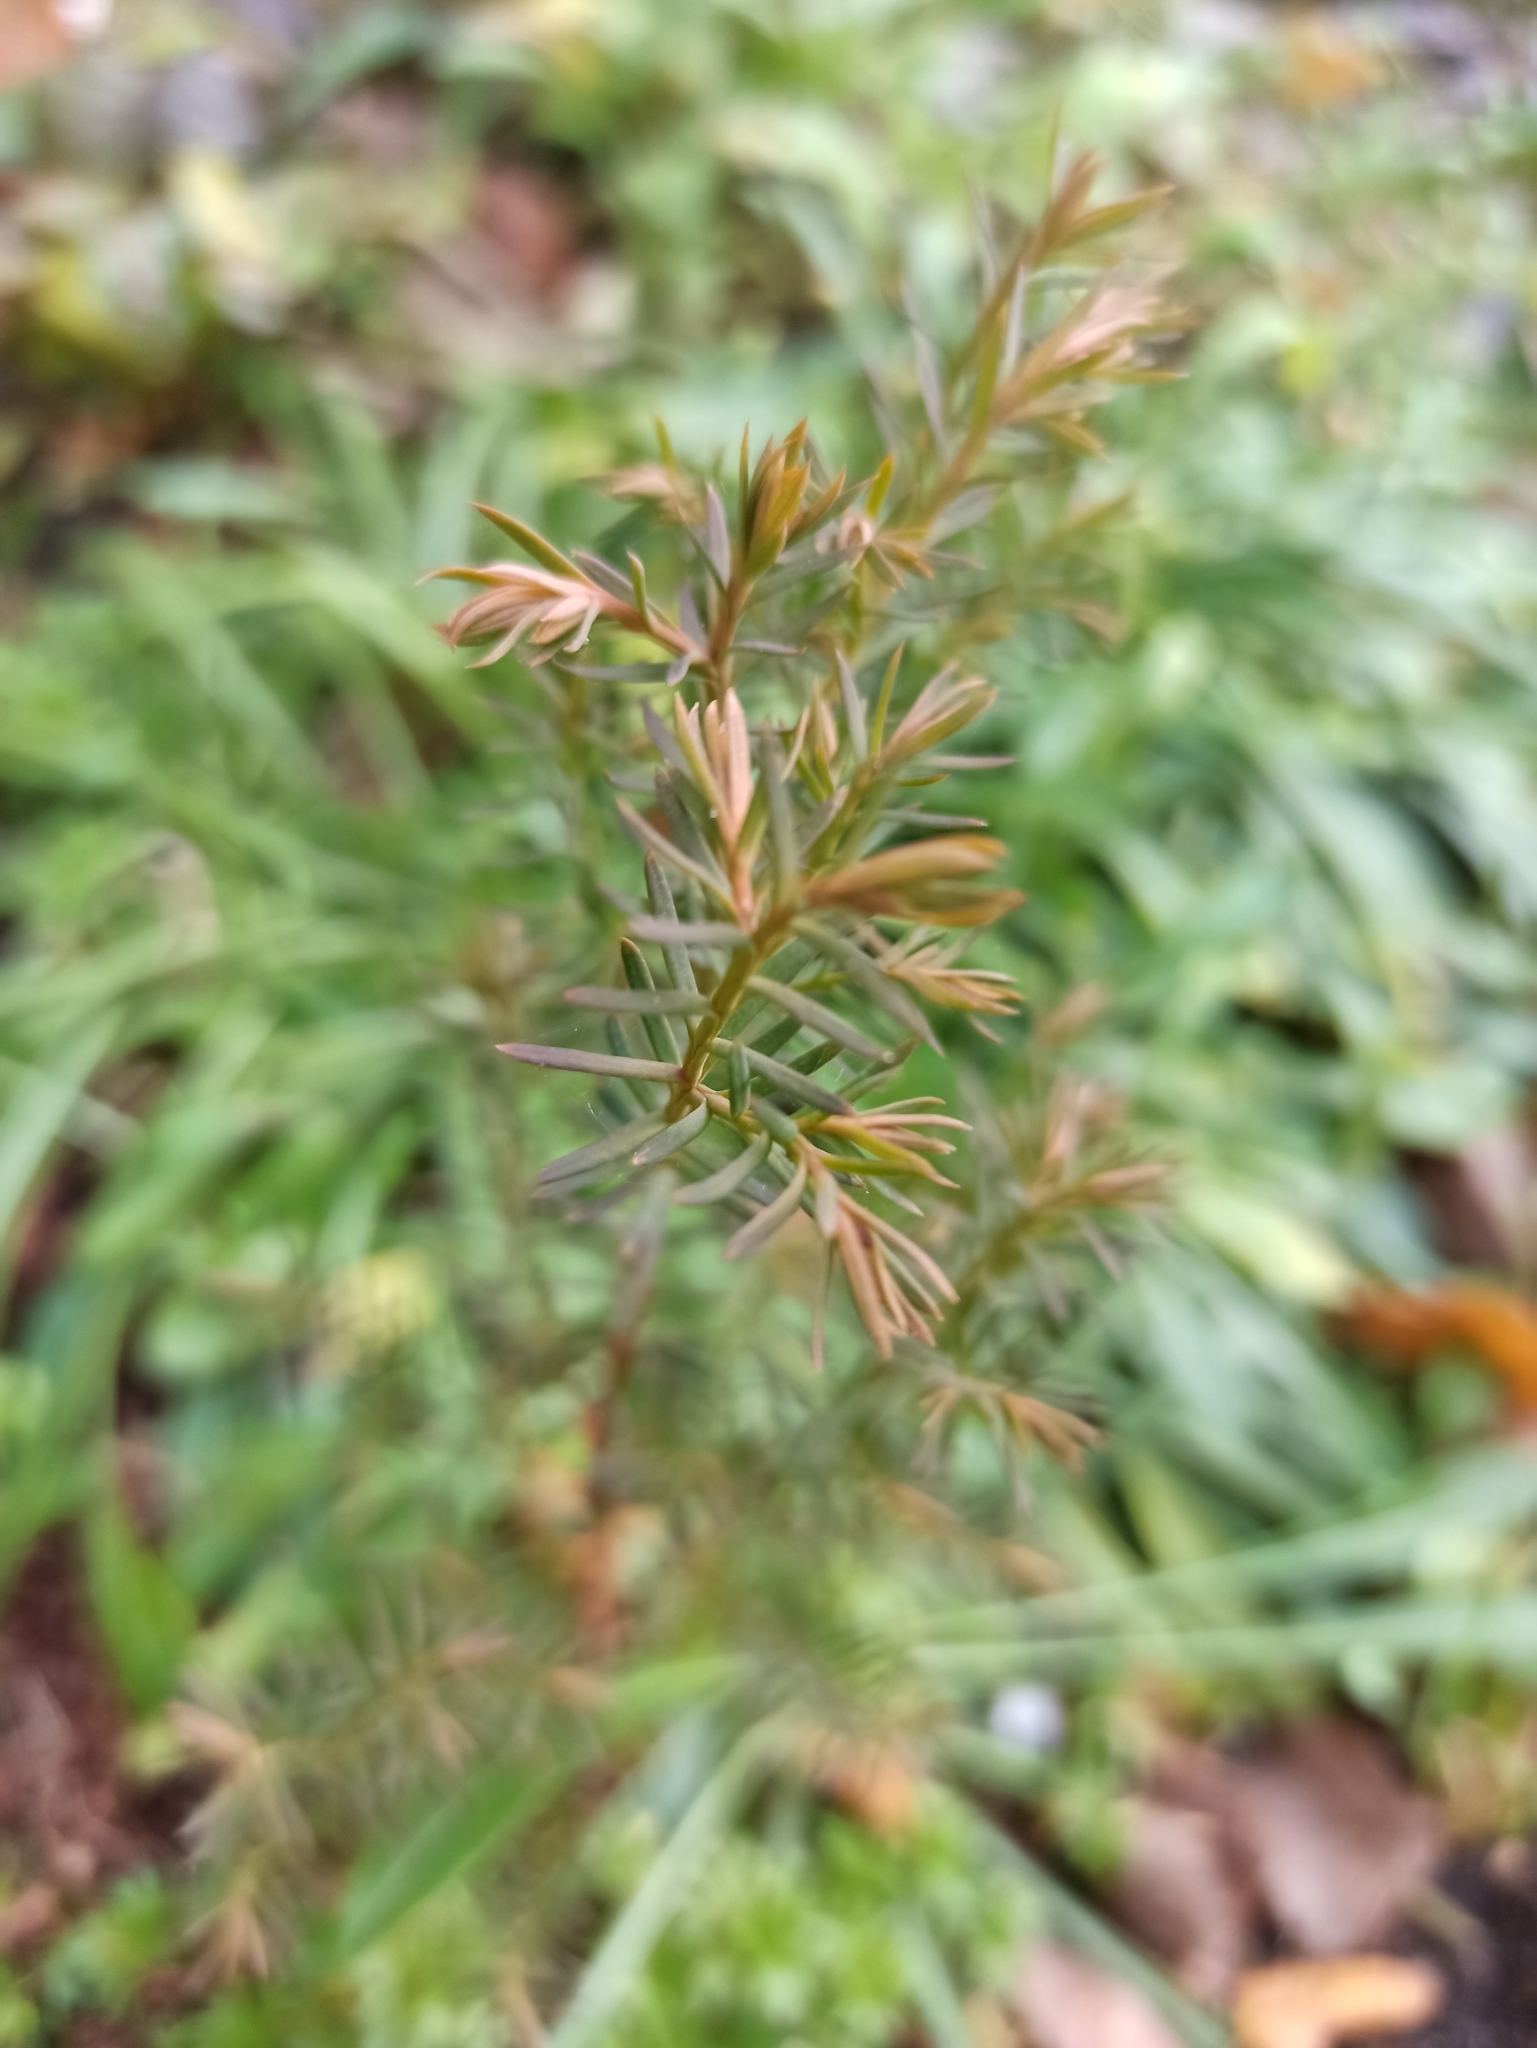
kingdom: Plantae
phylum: Tracheophyta
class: Pinopsida
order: Pinales
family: Cupressaceae
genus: Juniperus
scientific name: Juniperus communis
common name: Common juniper
